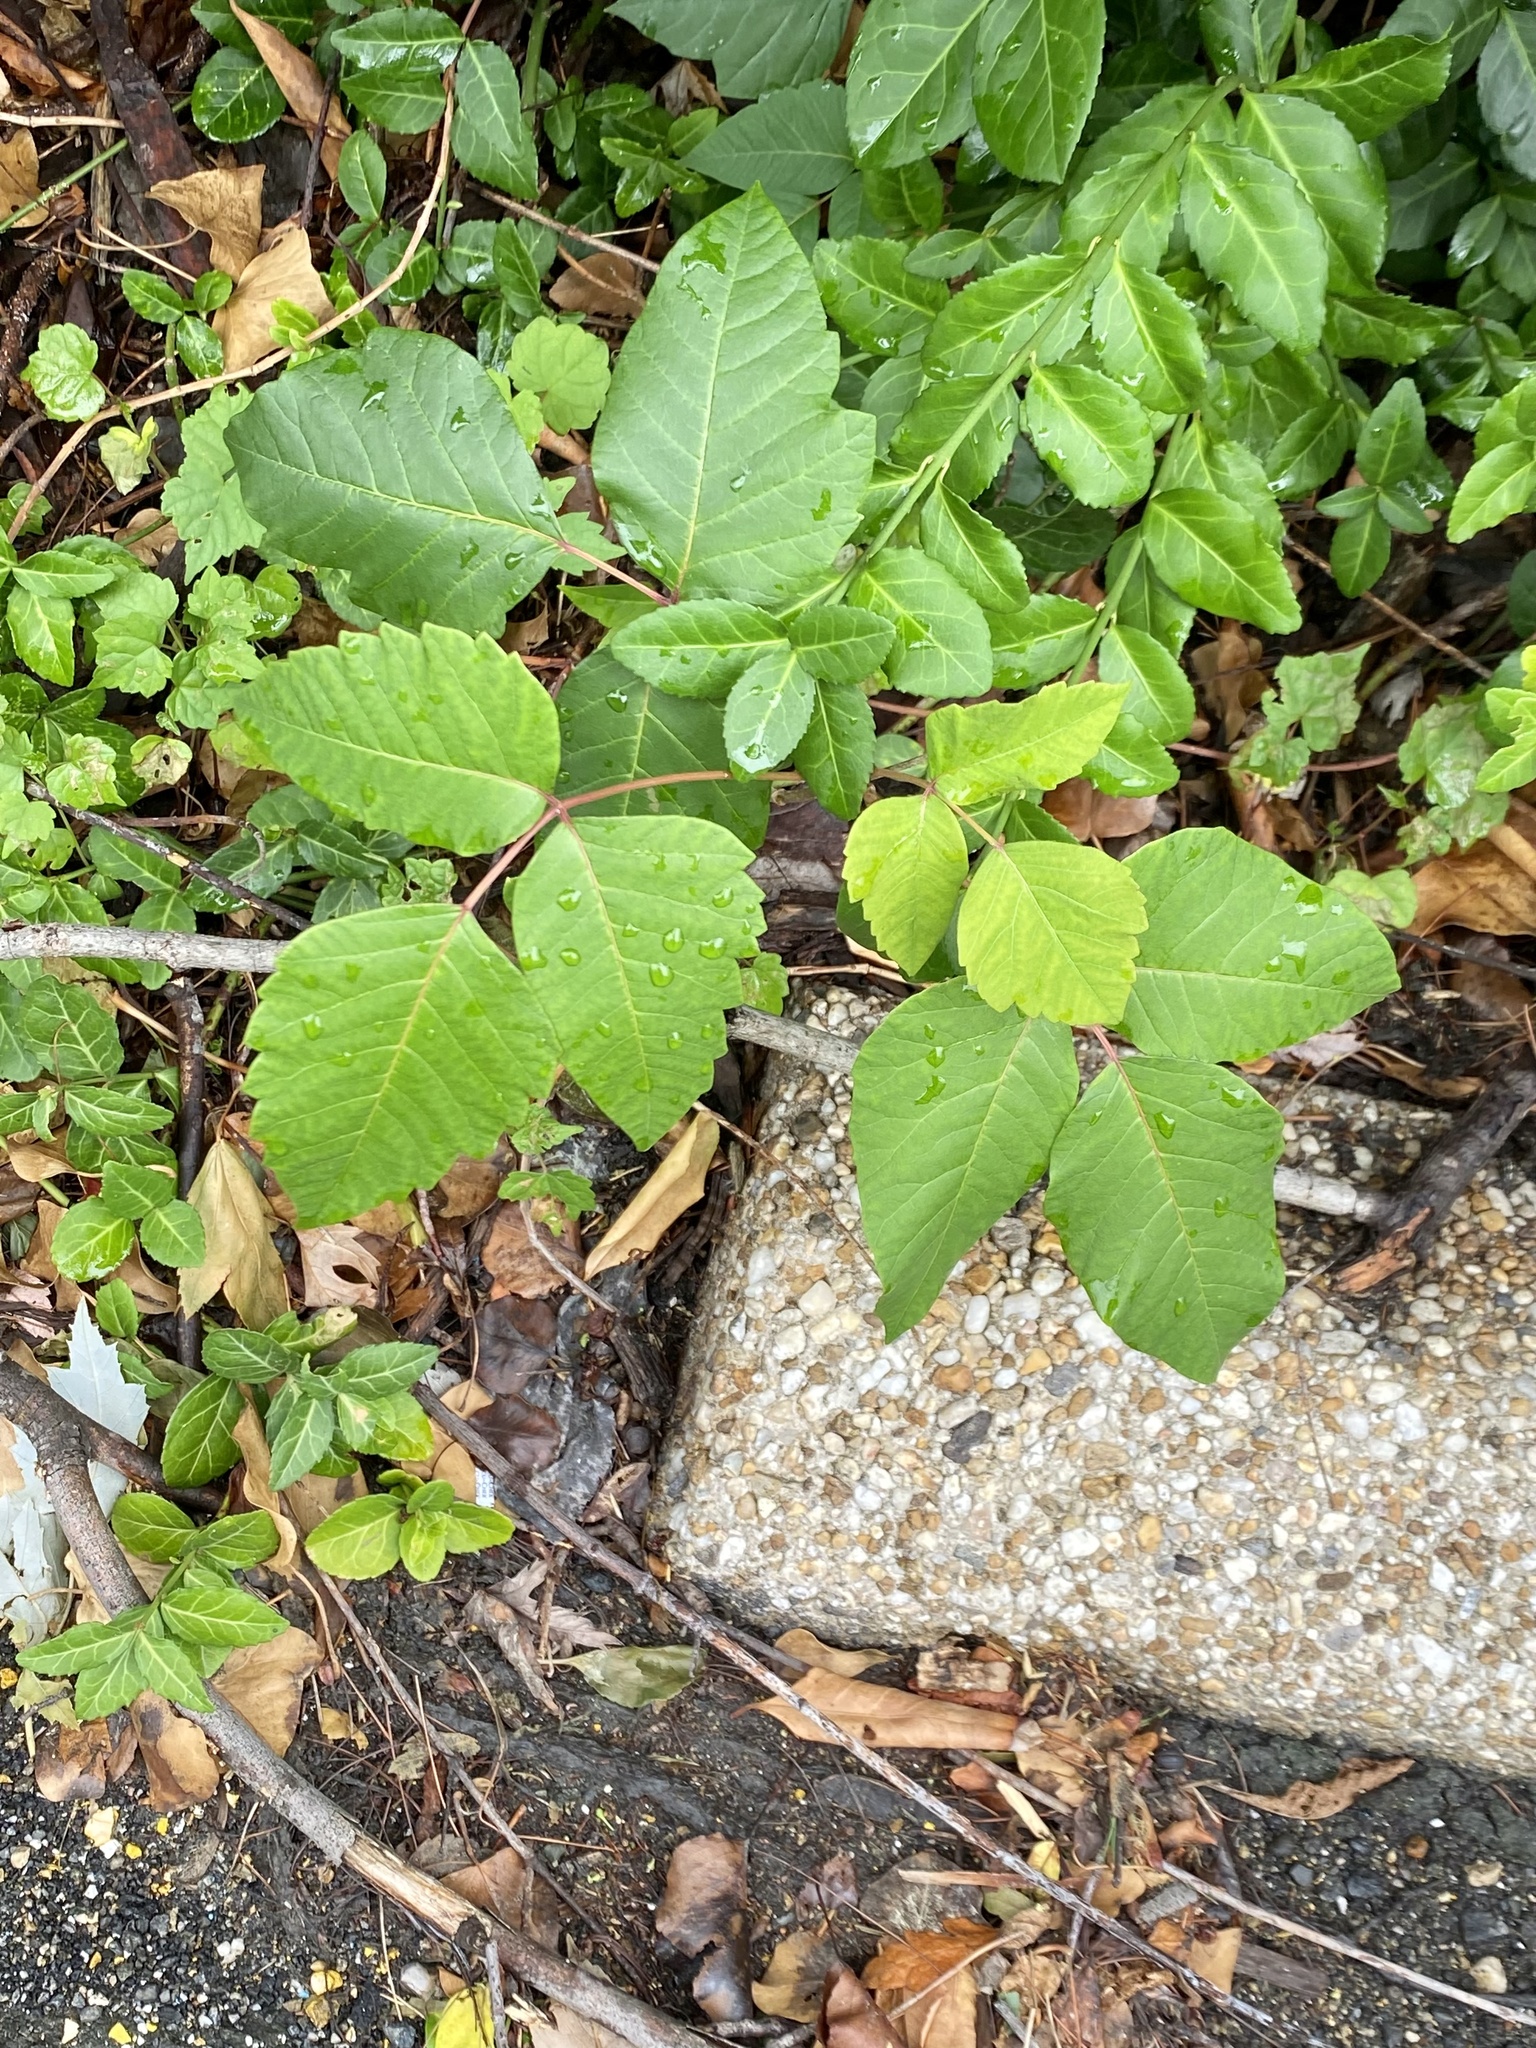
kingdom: Plantae
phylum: Tracheophyta
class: Magnoliopsida
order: Sapindales
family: Anacardiaceae
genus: Toxicodendron
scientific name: Toxicodendron radicans
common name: Poison ivy
